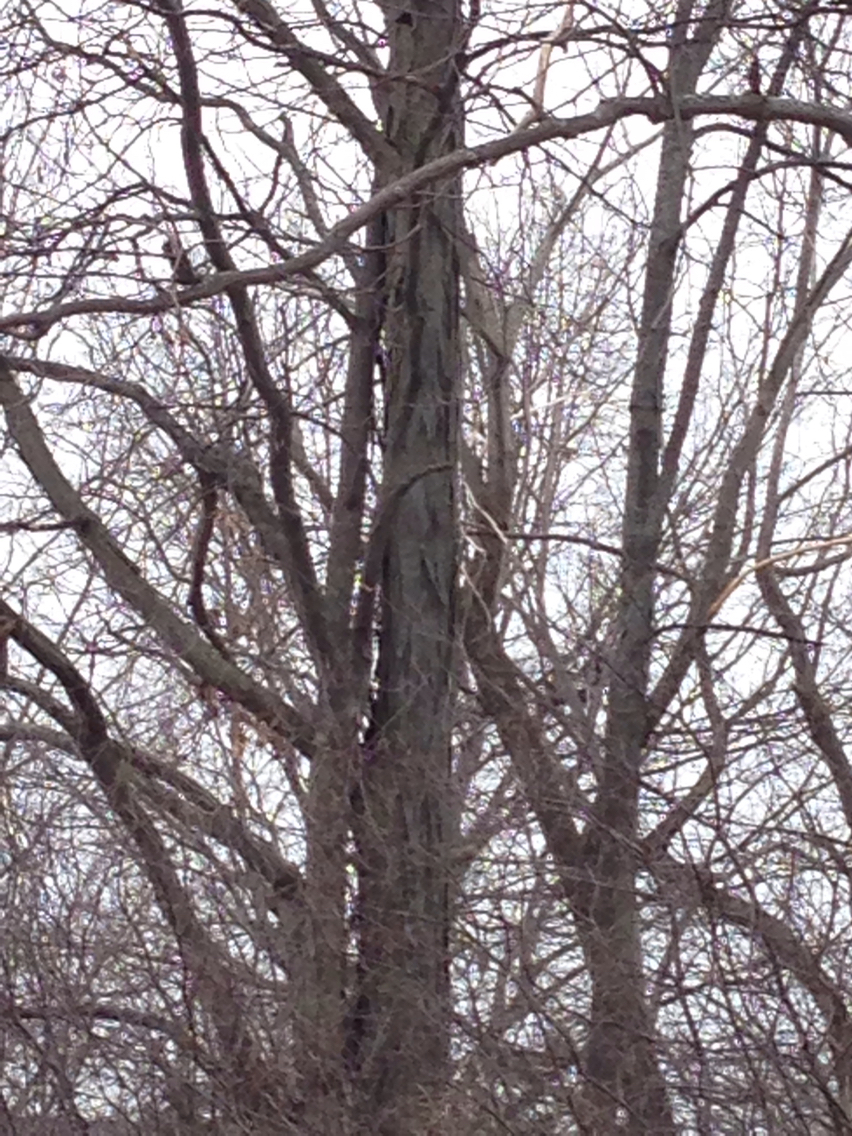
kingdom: Plantae
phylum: Tracheophyta
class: Magnoliopsida
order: Fagales
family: Juglandaceae
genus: Carya
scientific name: Carya ovata
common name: Shagbark hickory
